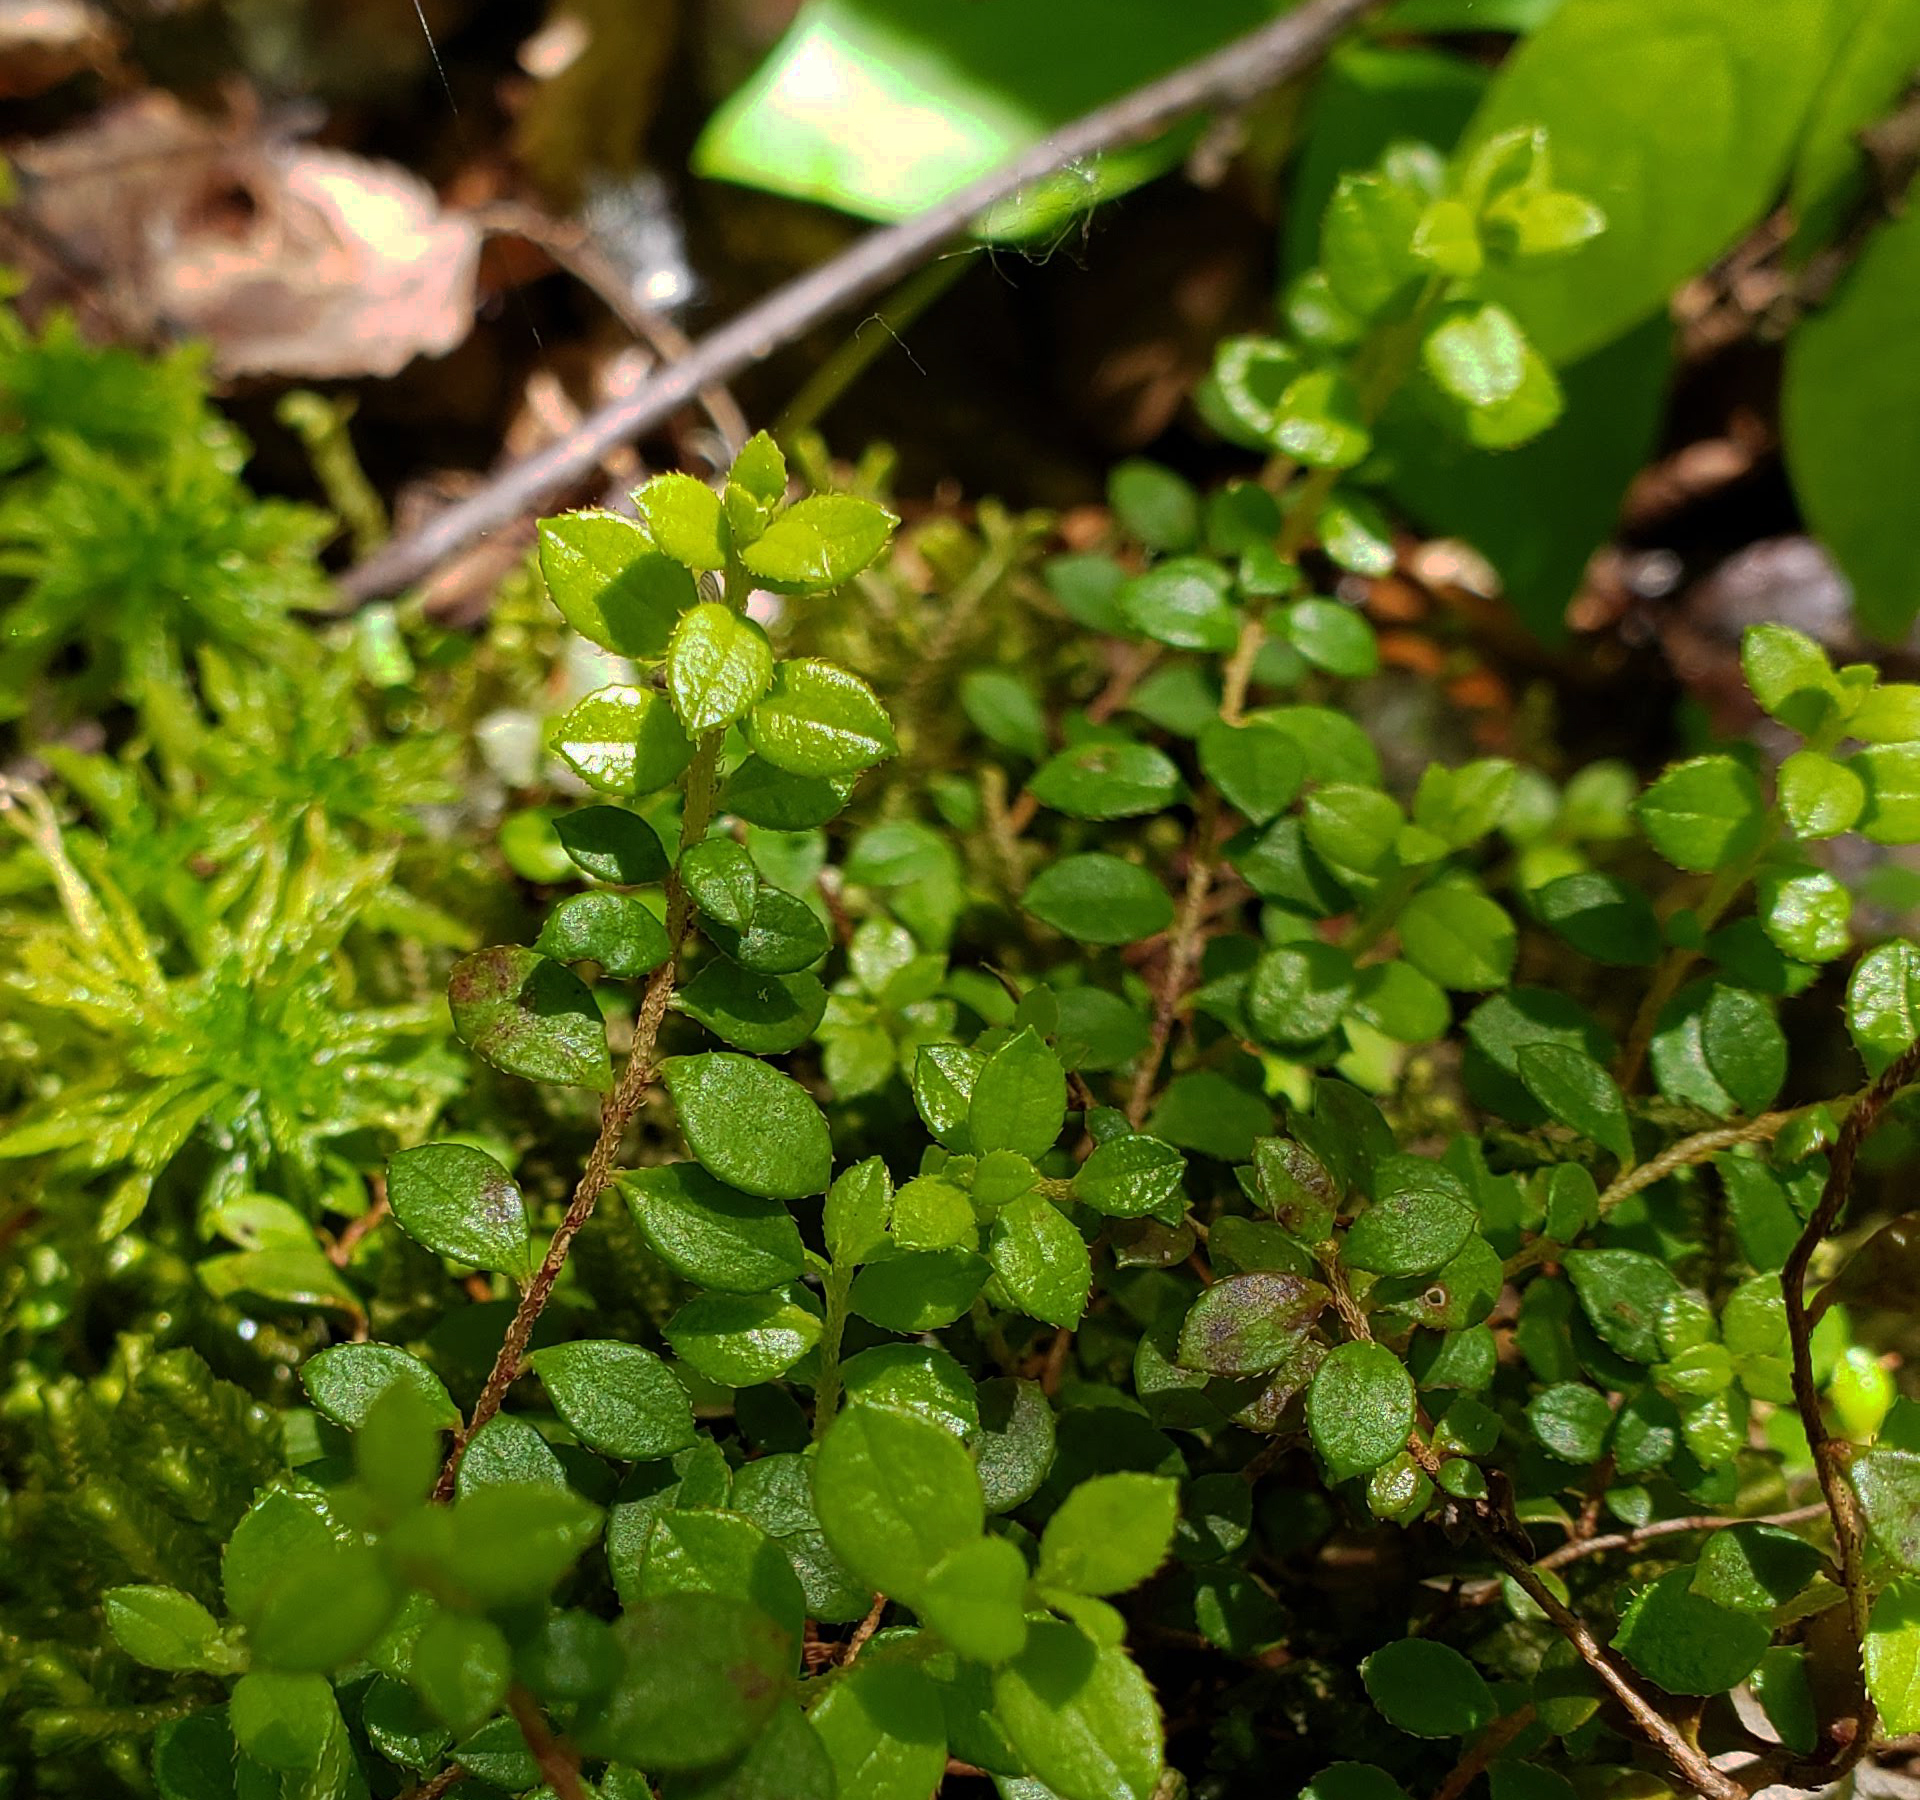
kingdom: Plantae
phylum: Tracheophyta
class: Magnoliopsida
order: Ericales
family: Ericaceae
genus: Gaultheria
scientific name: Gaultheria hispidula
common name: Cancer wintergreen
